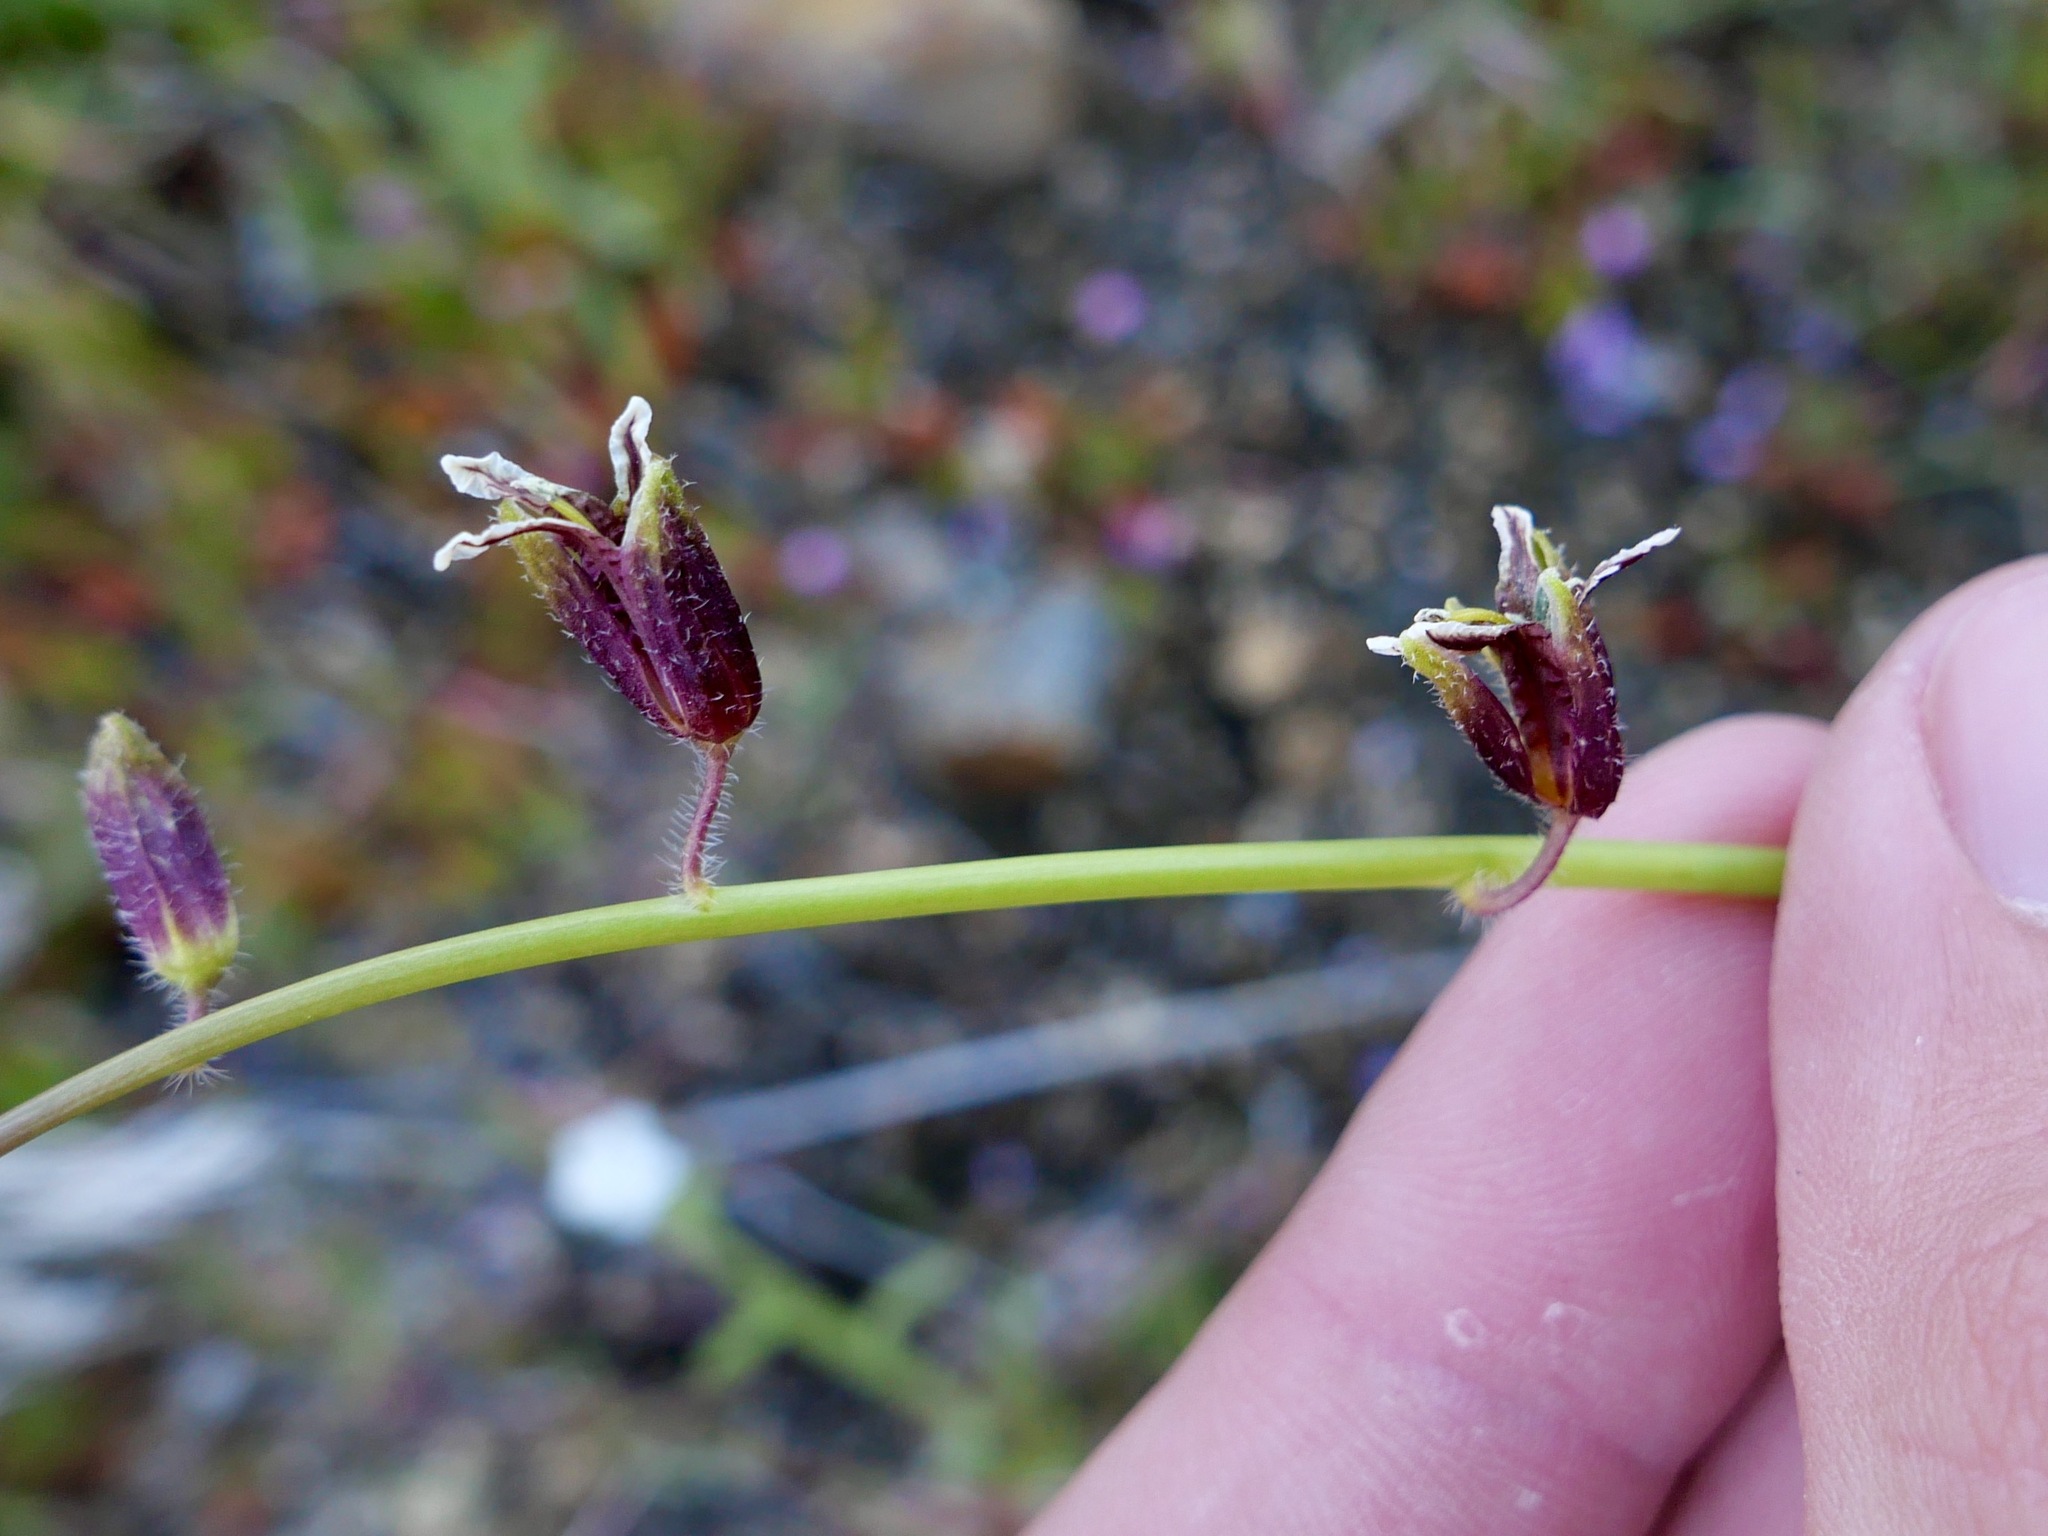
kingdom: Plantae
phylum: Tracheophyta
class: Magnoliopsida
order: Brassicales
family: Brassicaceae
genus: Streptanthus
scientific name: Streptanthus coulteri
